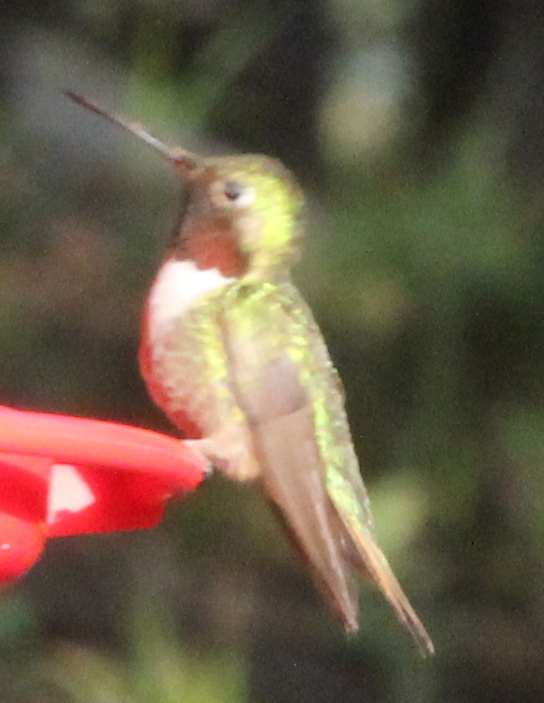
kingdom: Animalia
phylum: Chordata
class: Aves
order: Apodiformes
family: Trochilidae
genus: Selasphorus
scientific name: Selasphorus platycercus
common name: Broad-tailed hummingbird
